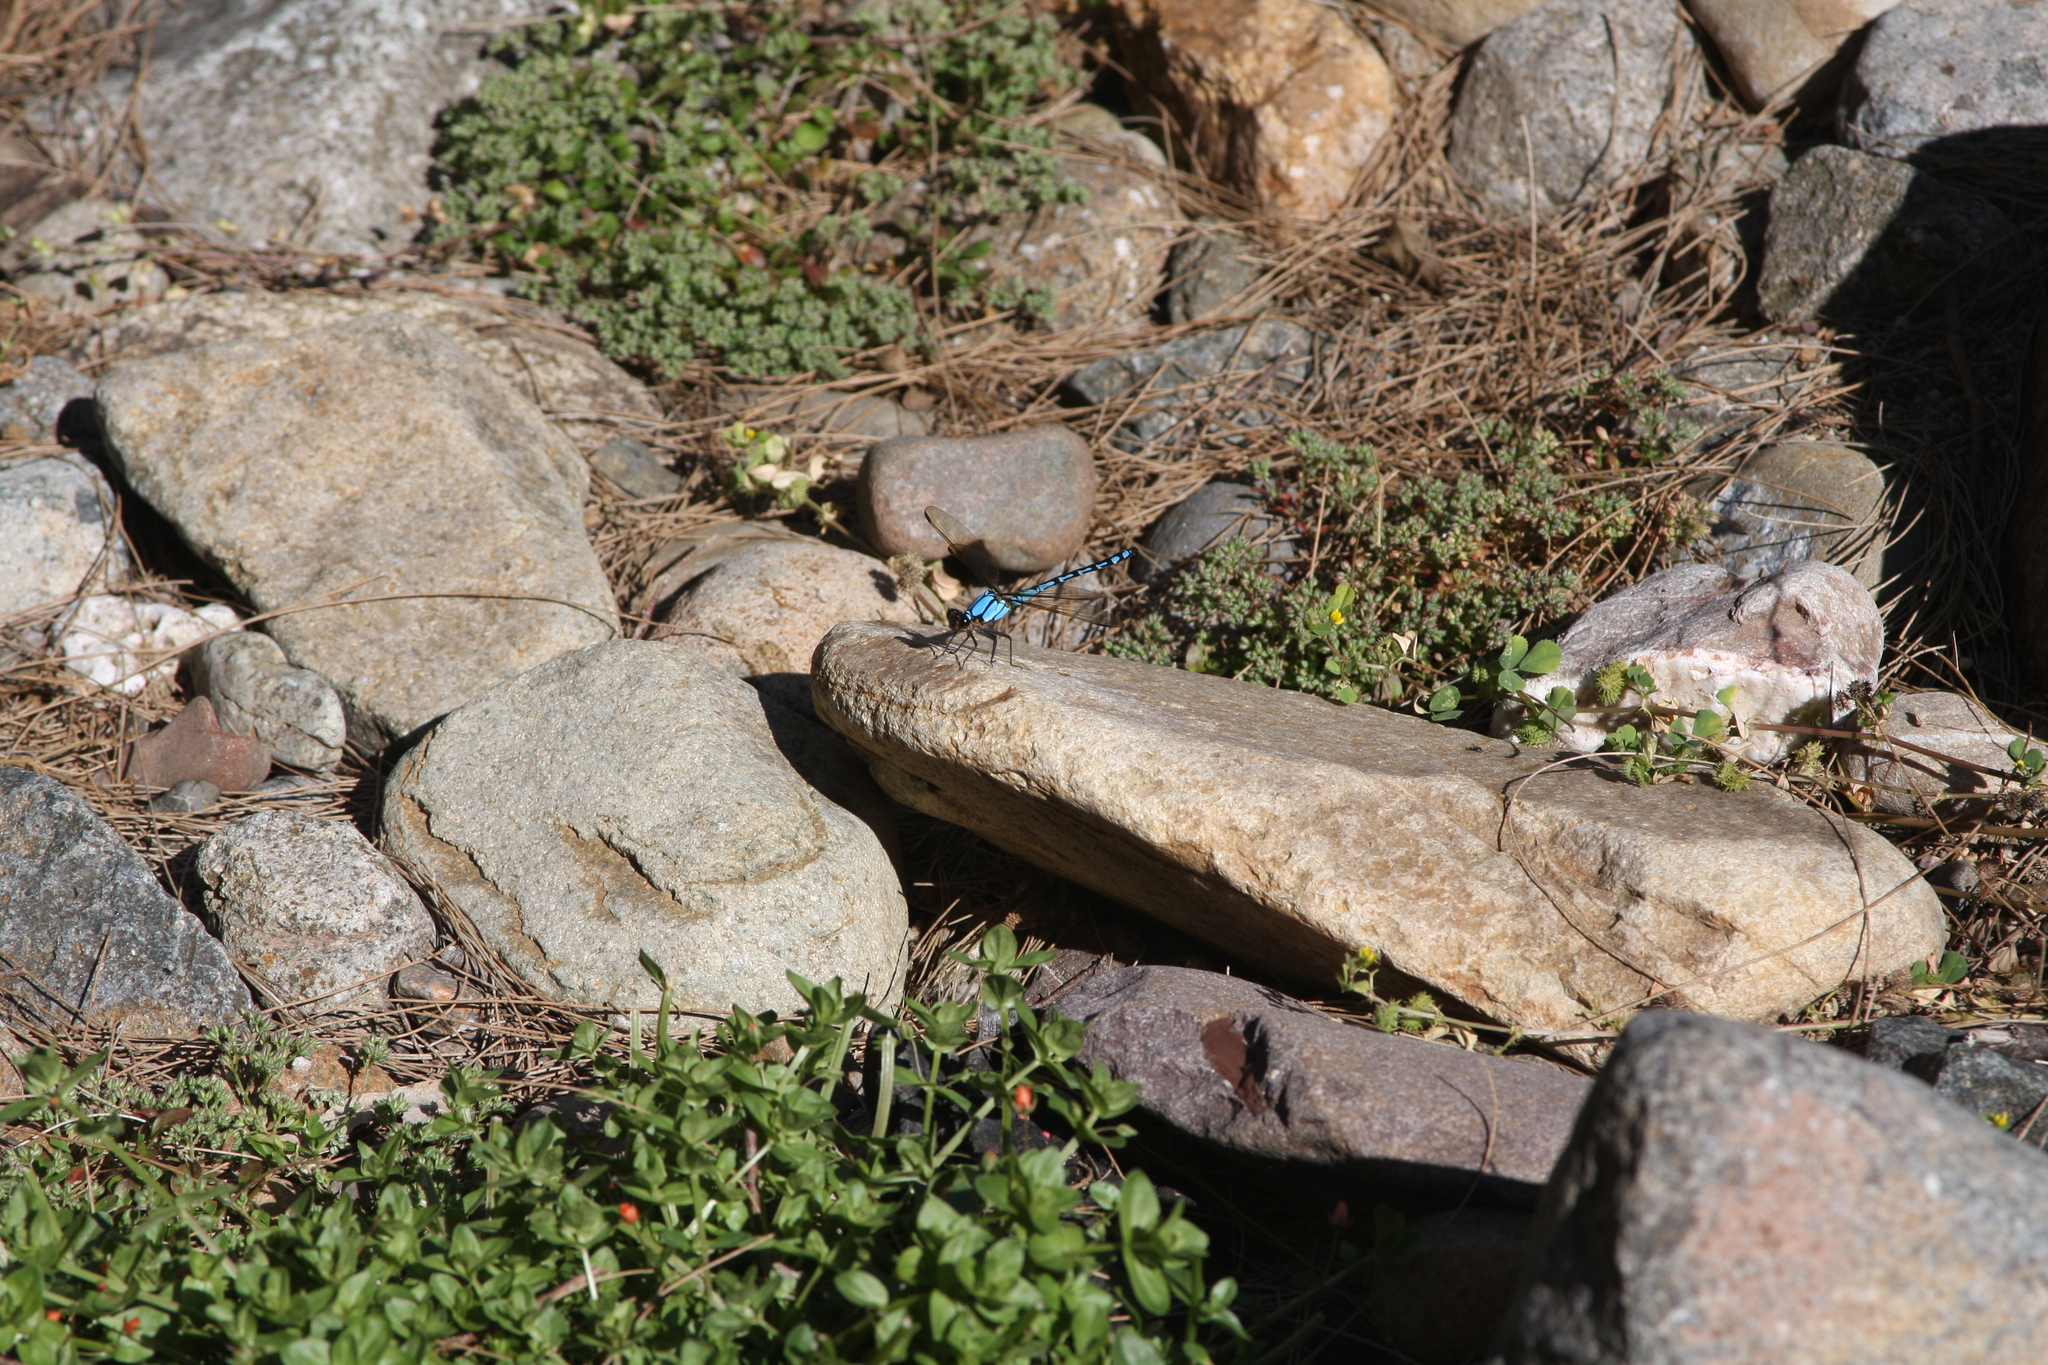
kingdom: Animalia
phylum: Arthropoda
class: Insecta
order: Odonata
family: Lestoideidae
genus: Diphlebia
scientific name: Diphlebia nymphoides
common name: Arrowhead rockmaster
